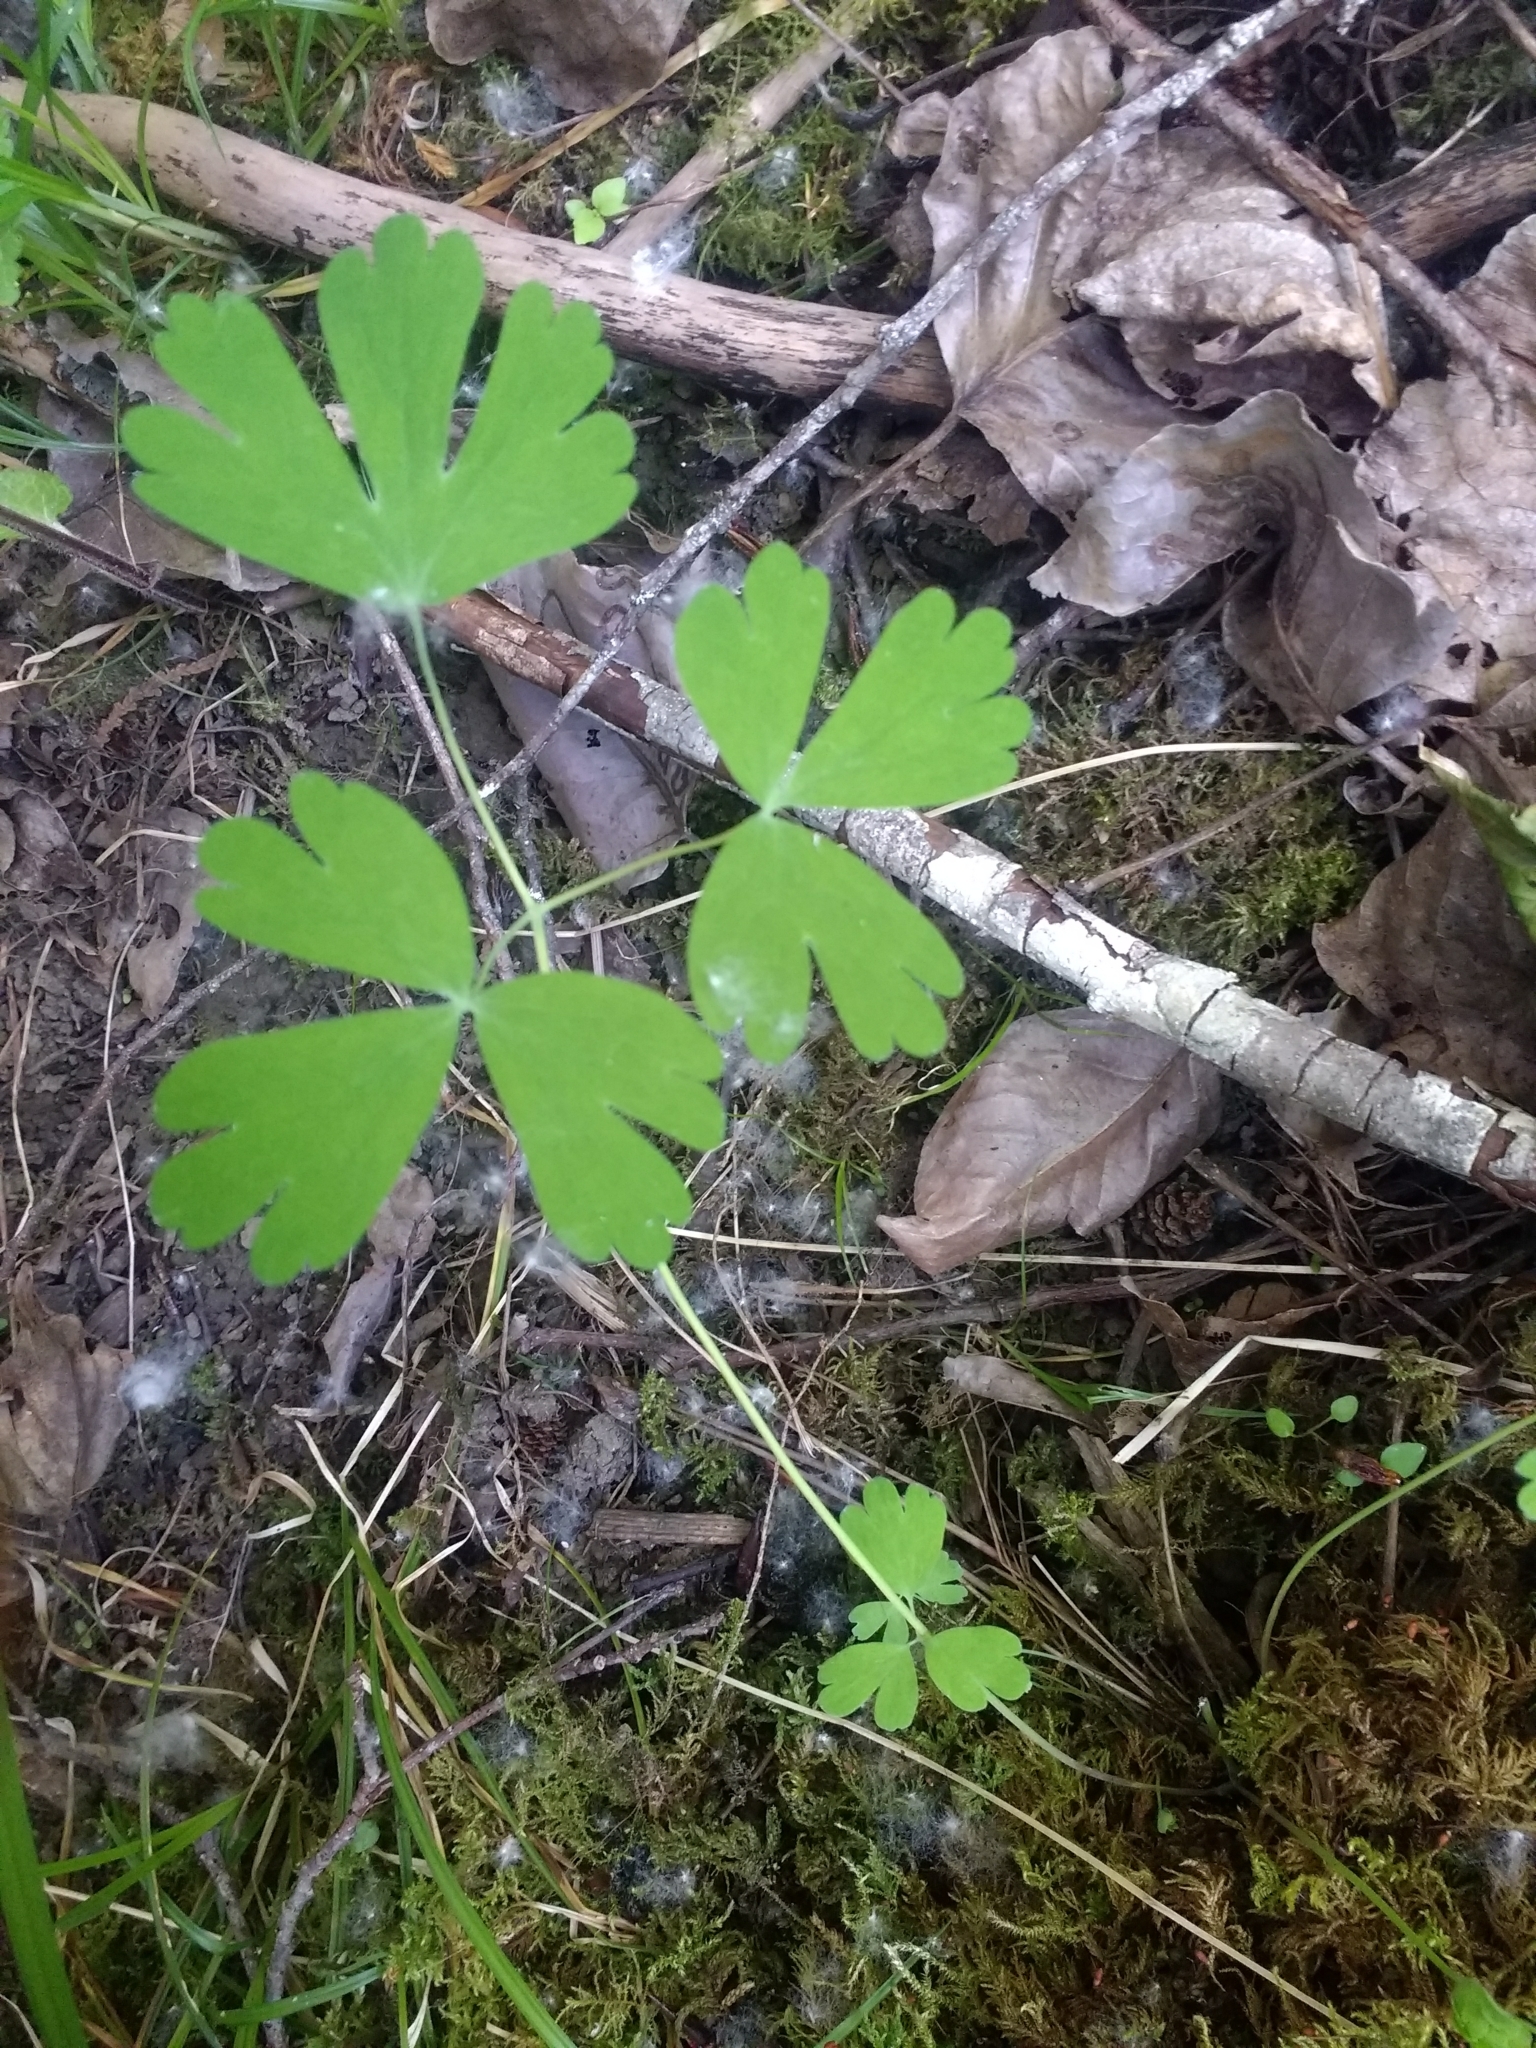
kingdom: Plantae
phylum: Tracheophyta
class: Magnoliopsida
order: Ranunculales
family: Ranunculaceae
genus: Aquilegia
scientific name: Aquilegia formosa
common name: Sitka columbine
